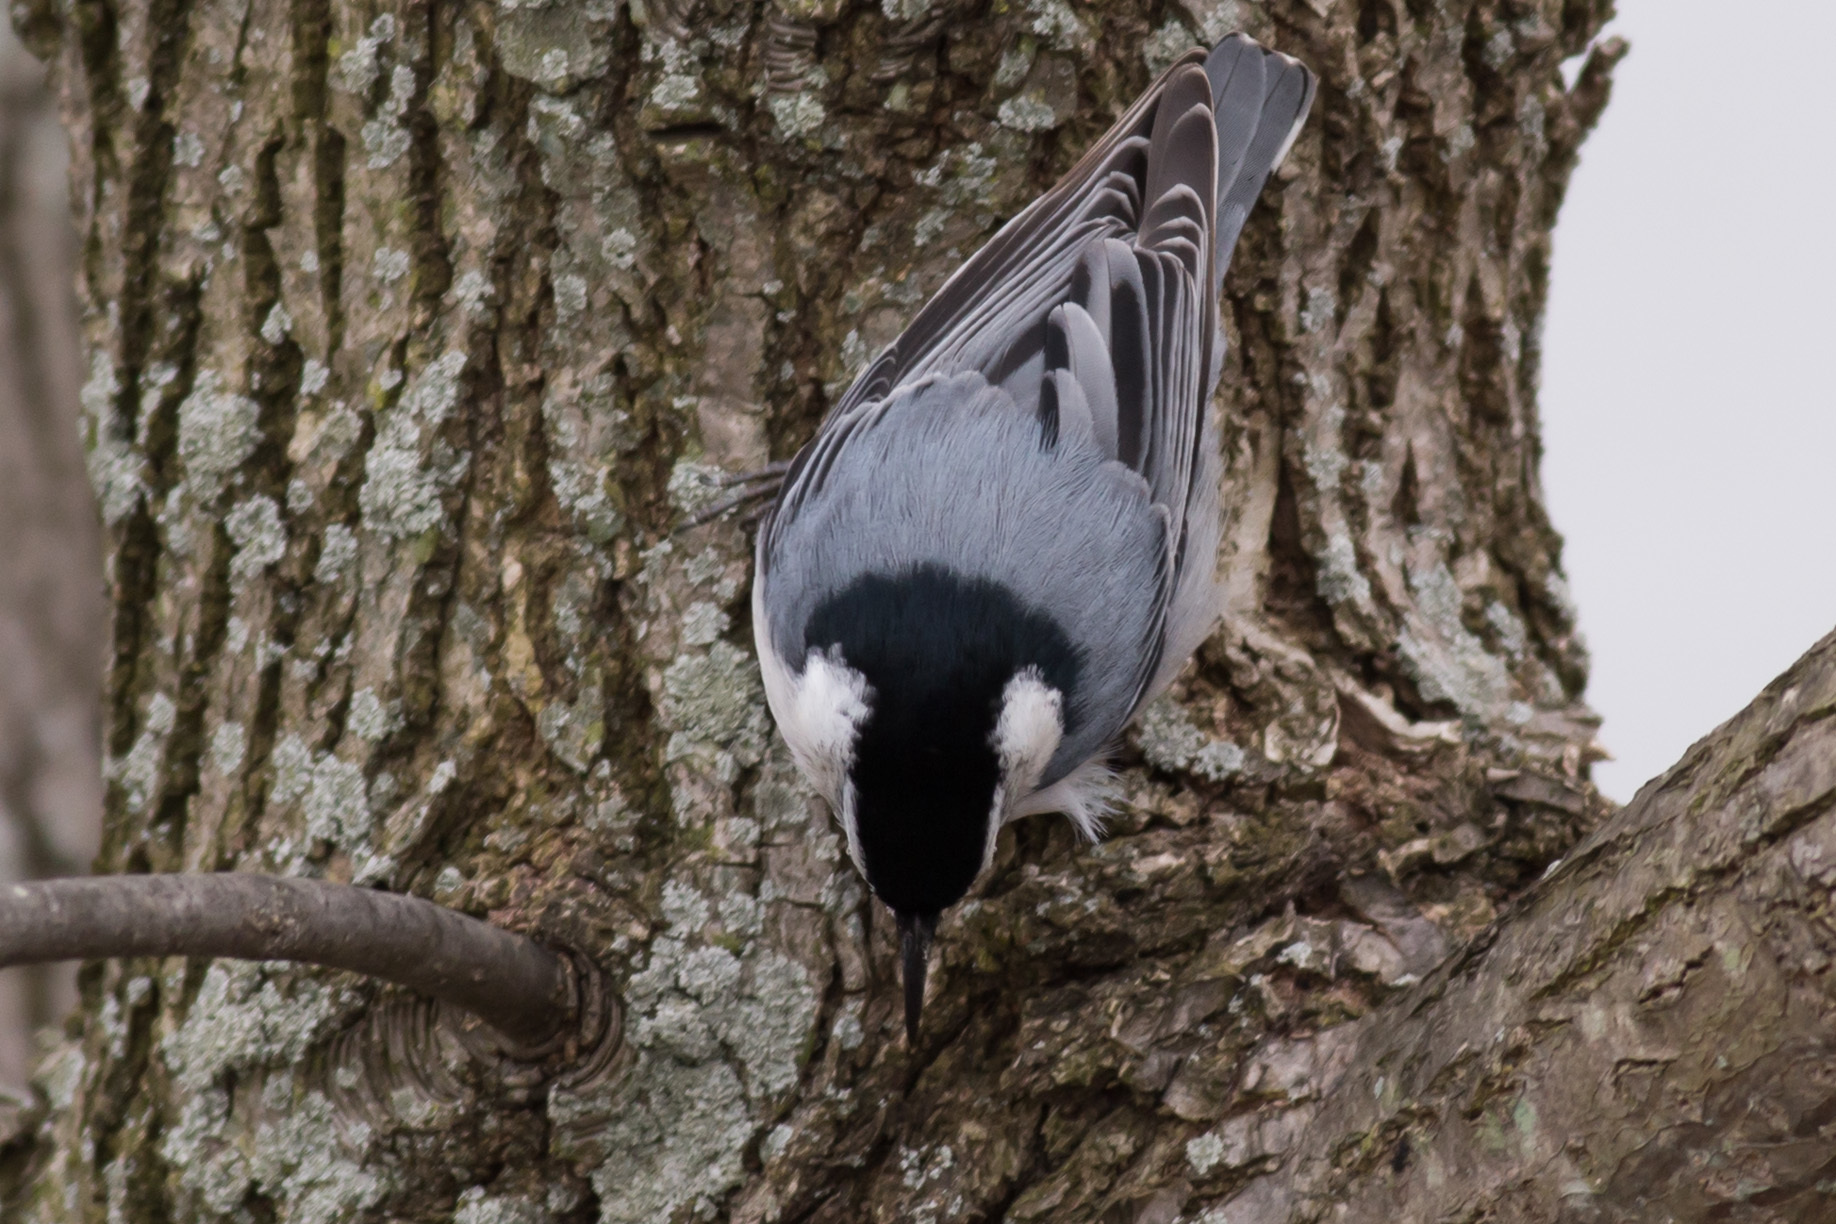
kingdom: Animalia
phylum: Chordata
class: Aves
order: Passeriformes
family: Sittidae
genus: Sitta
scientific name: Sitta carolinensis
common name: White-breasted nuthatch
